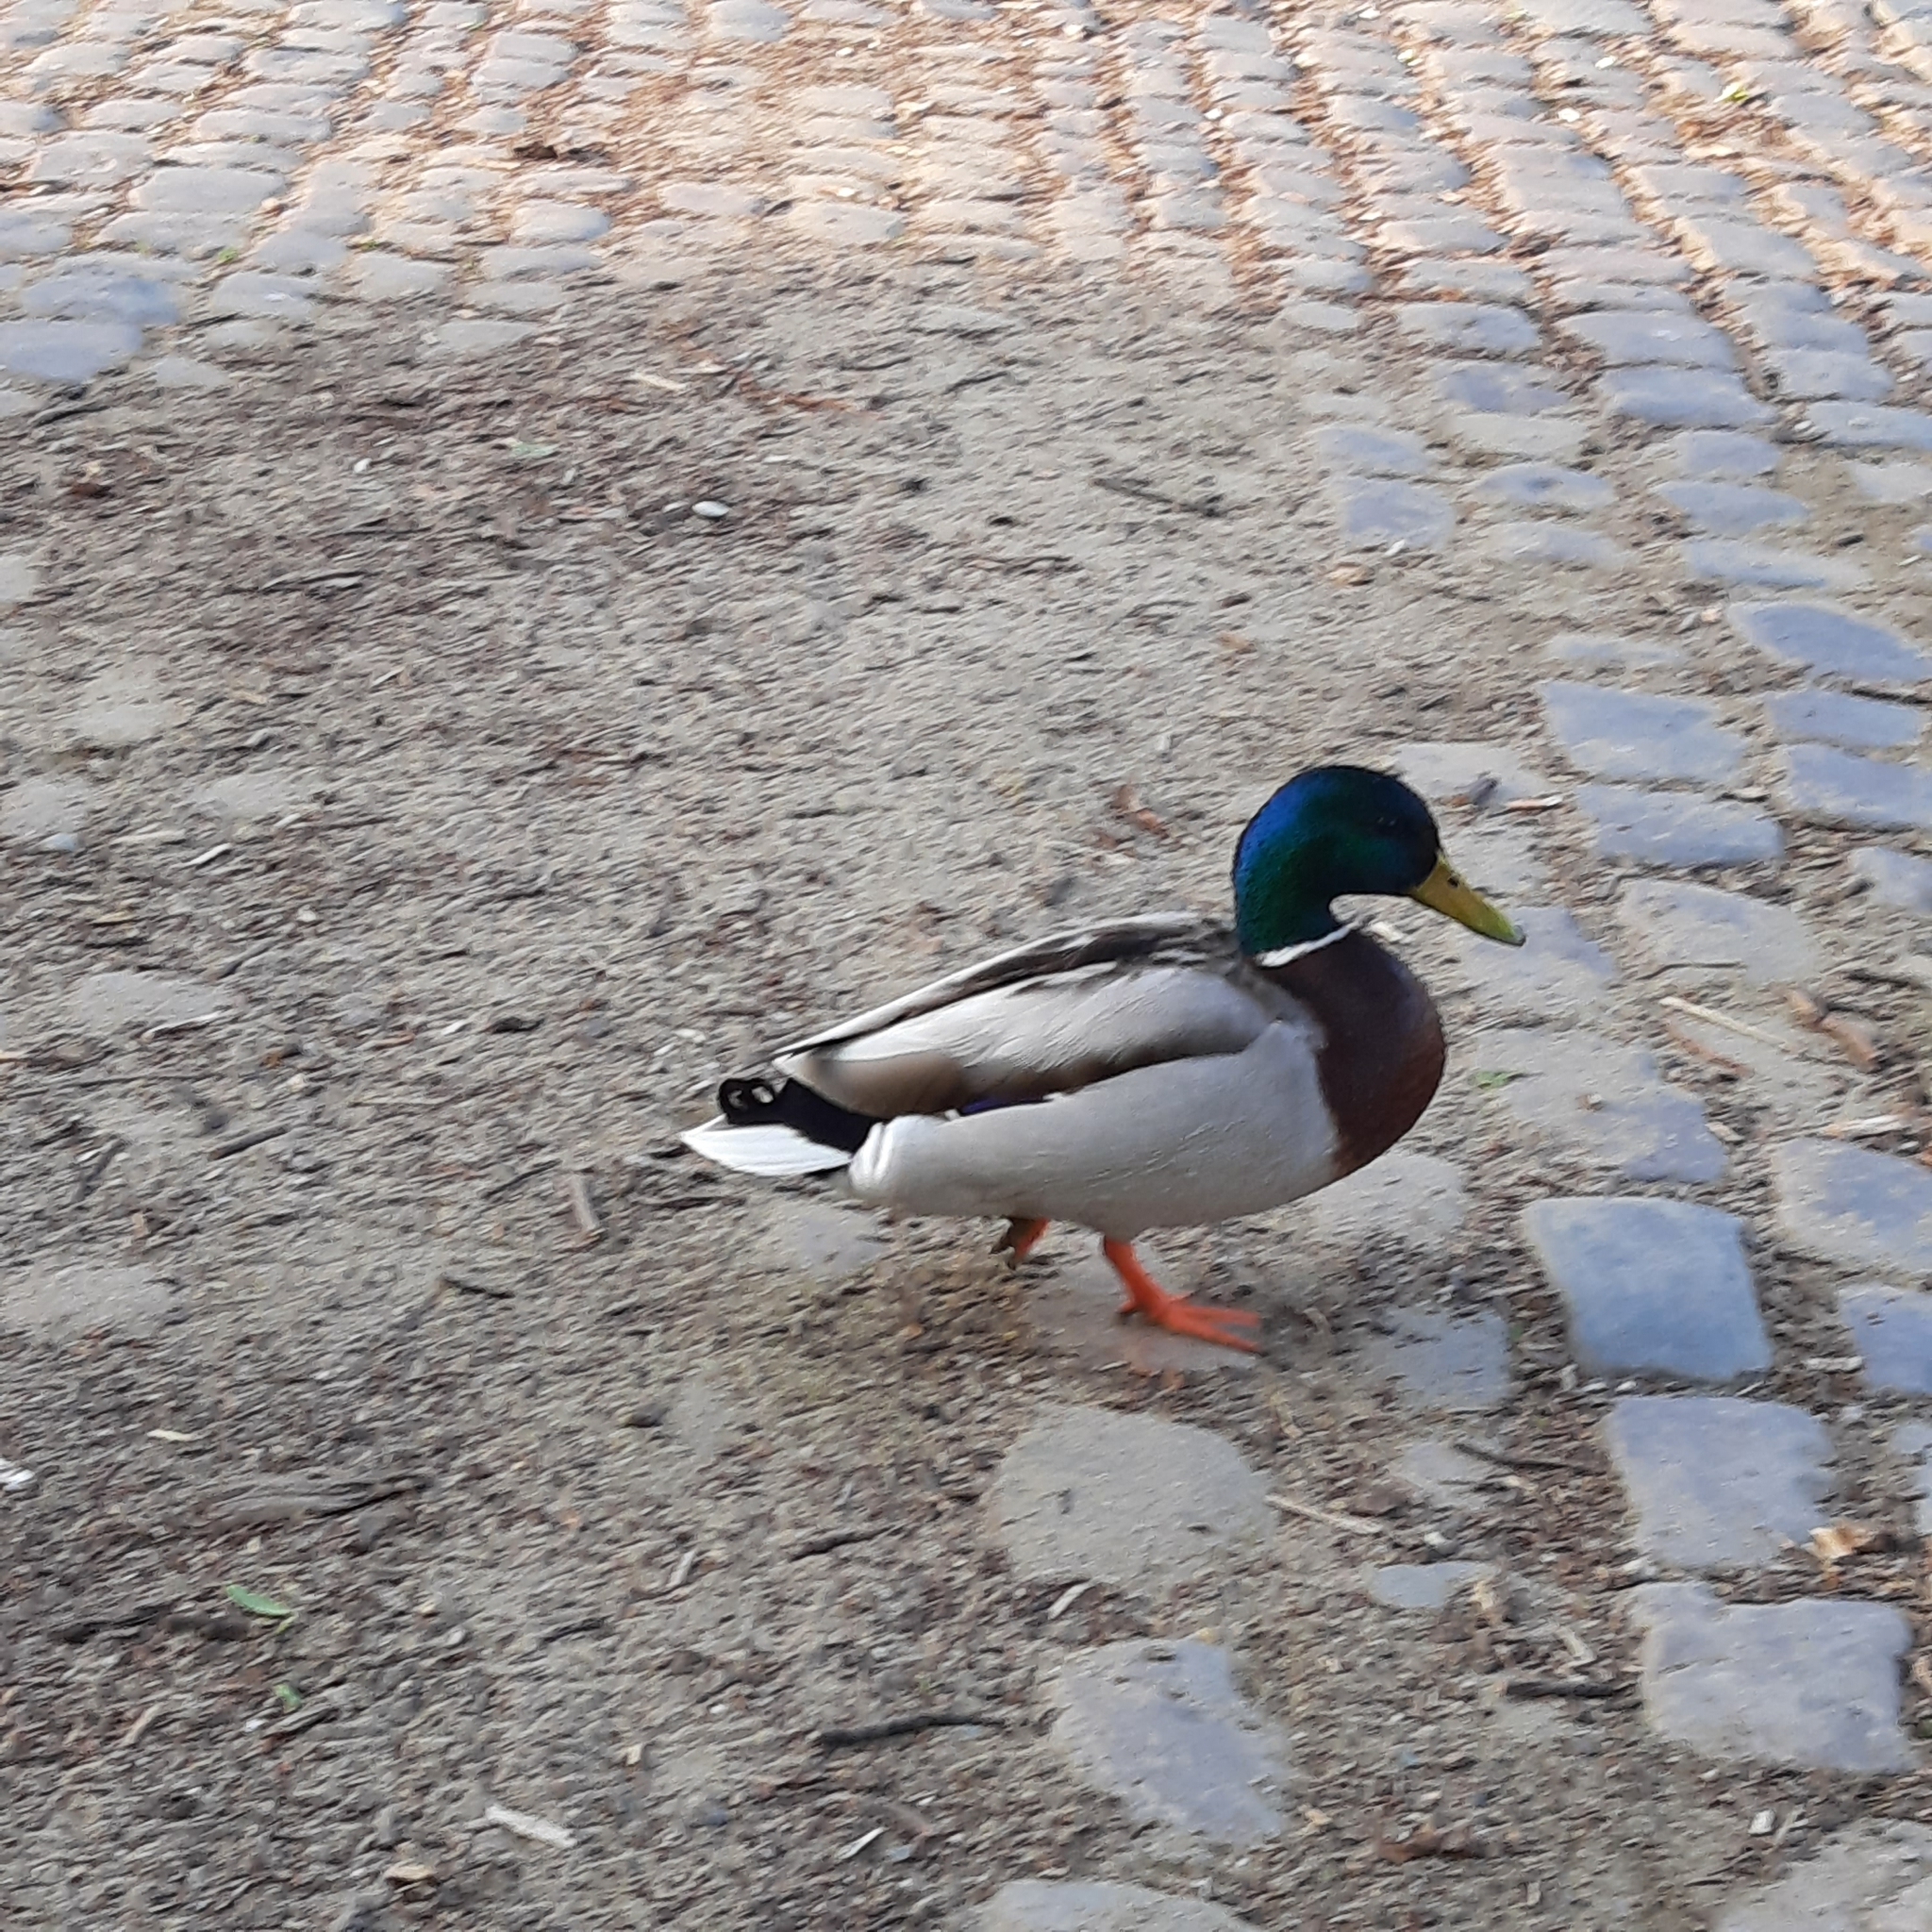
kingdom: Animalia
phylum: Chordata
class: Aves
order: Anseriformes
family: Anatidae
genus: Anas
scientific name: Anas platyrhynchos
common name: Mallard
